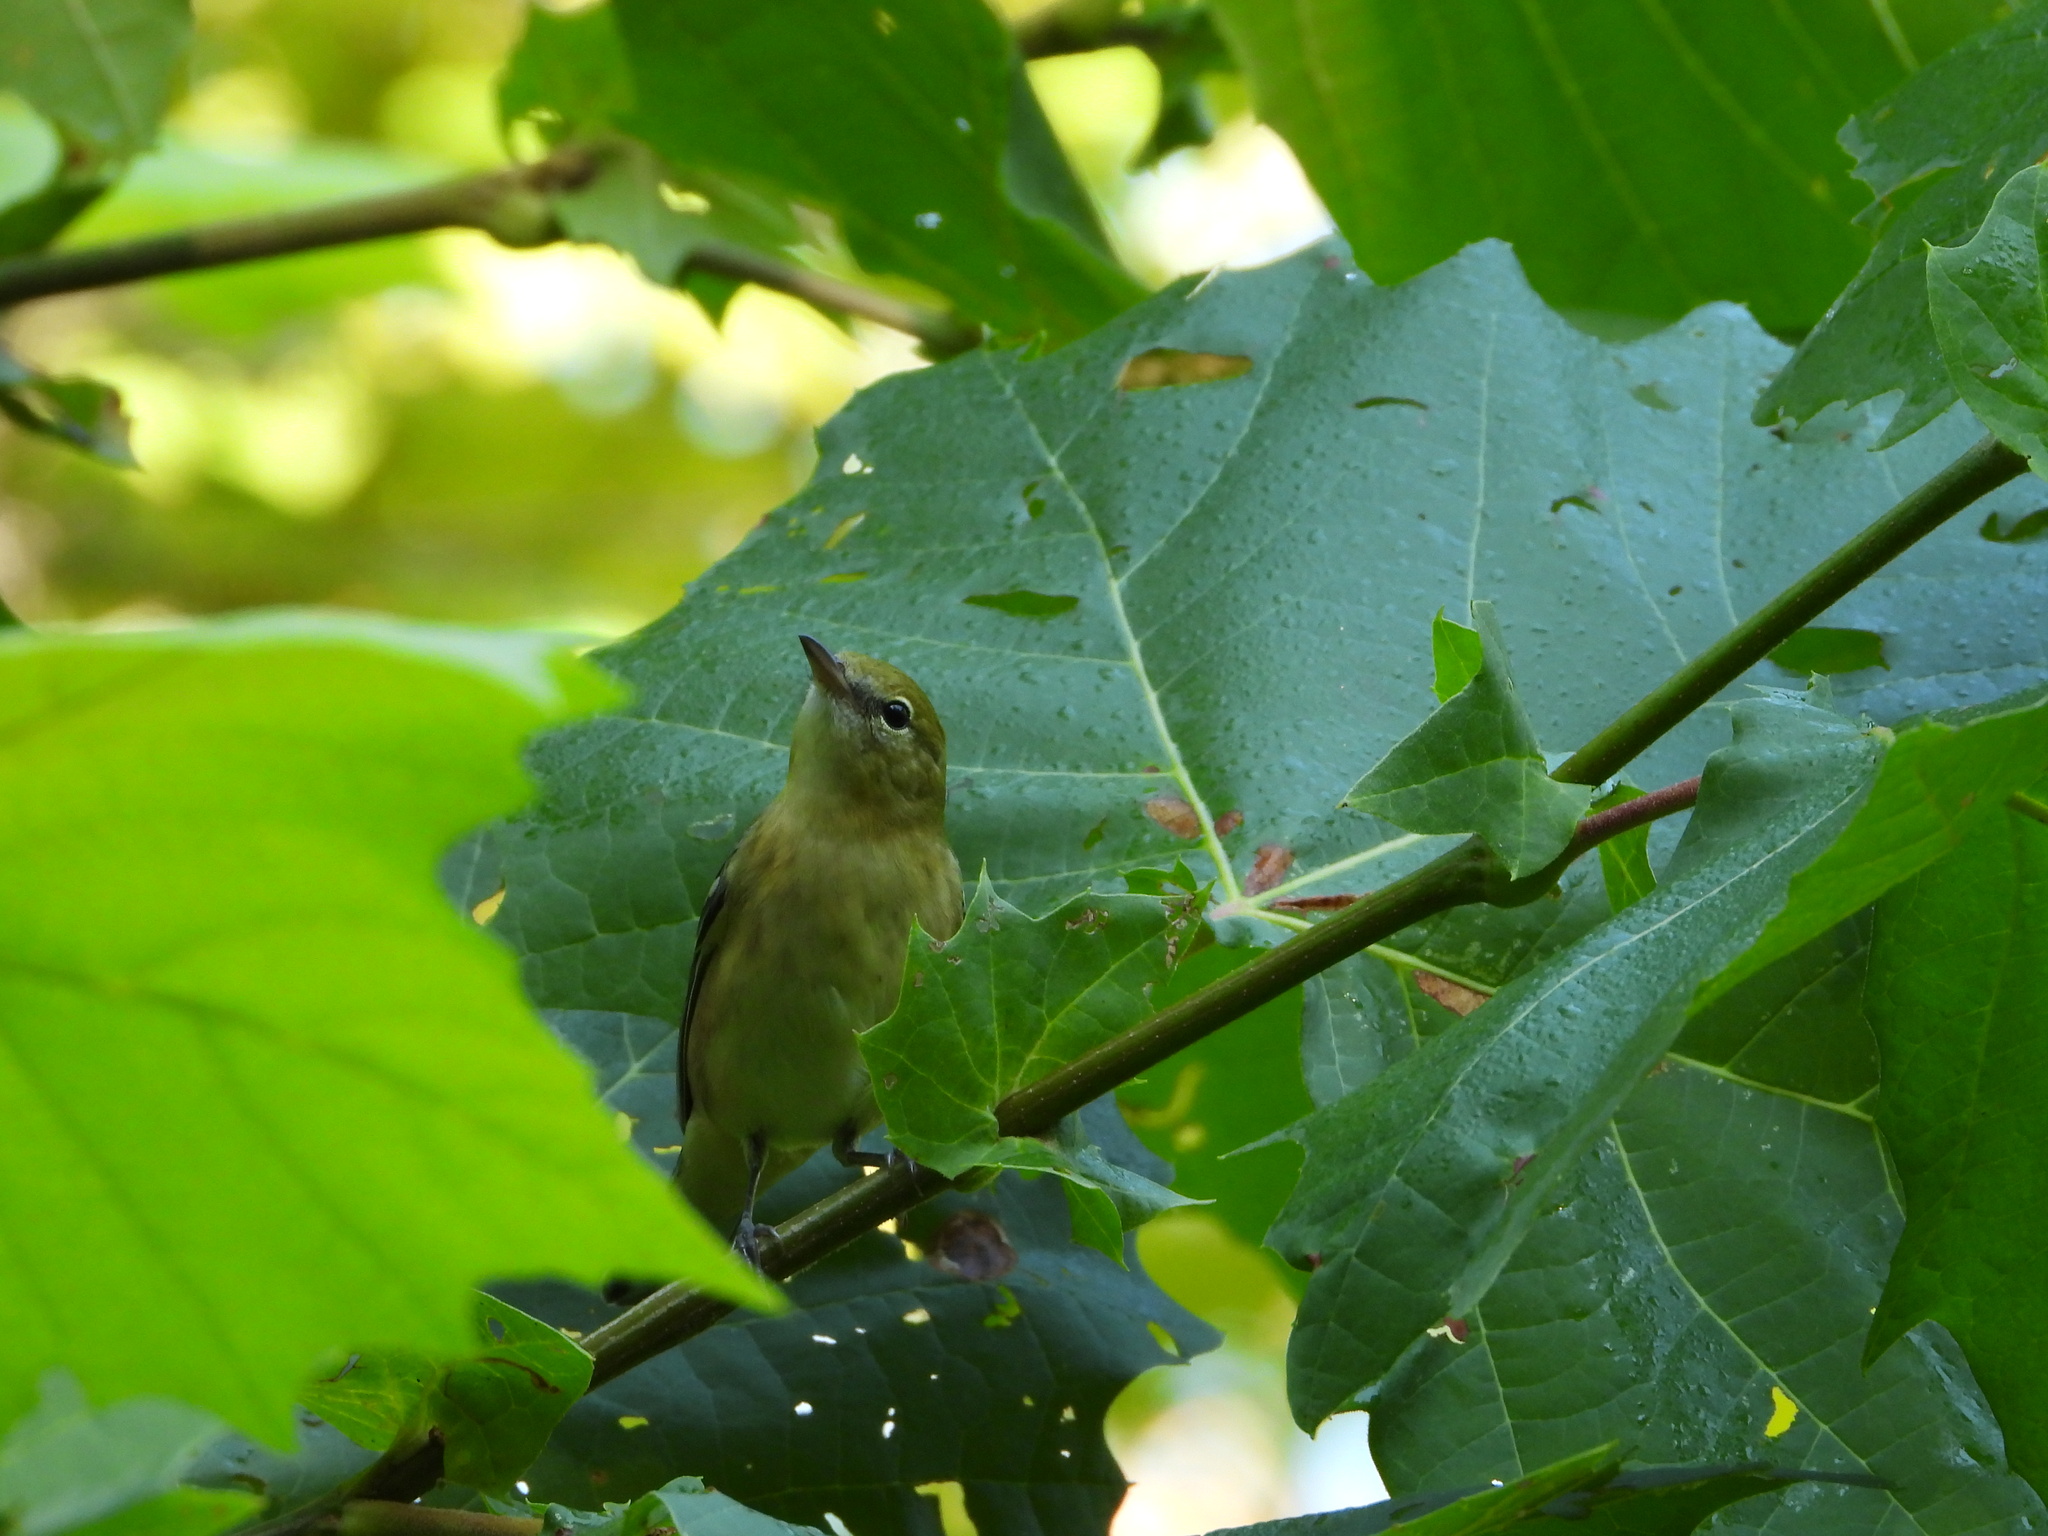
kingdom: Animalia
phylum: Chordata
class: Aves
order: Passeriformes
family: Parulidae
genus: Setophaga
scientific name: Setophaga castanea
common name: Bay-breasted warbler
